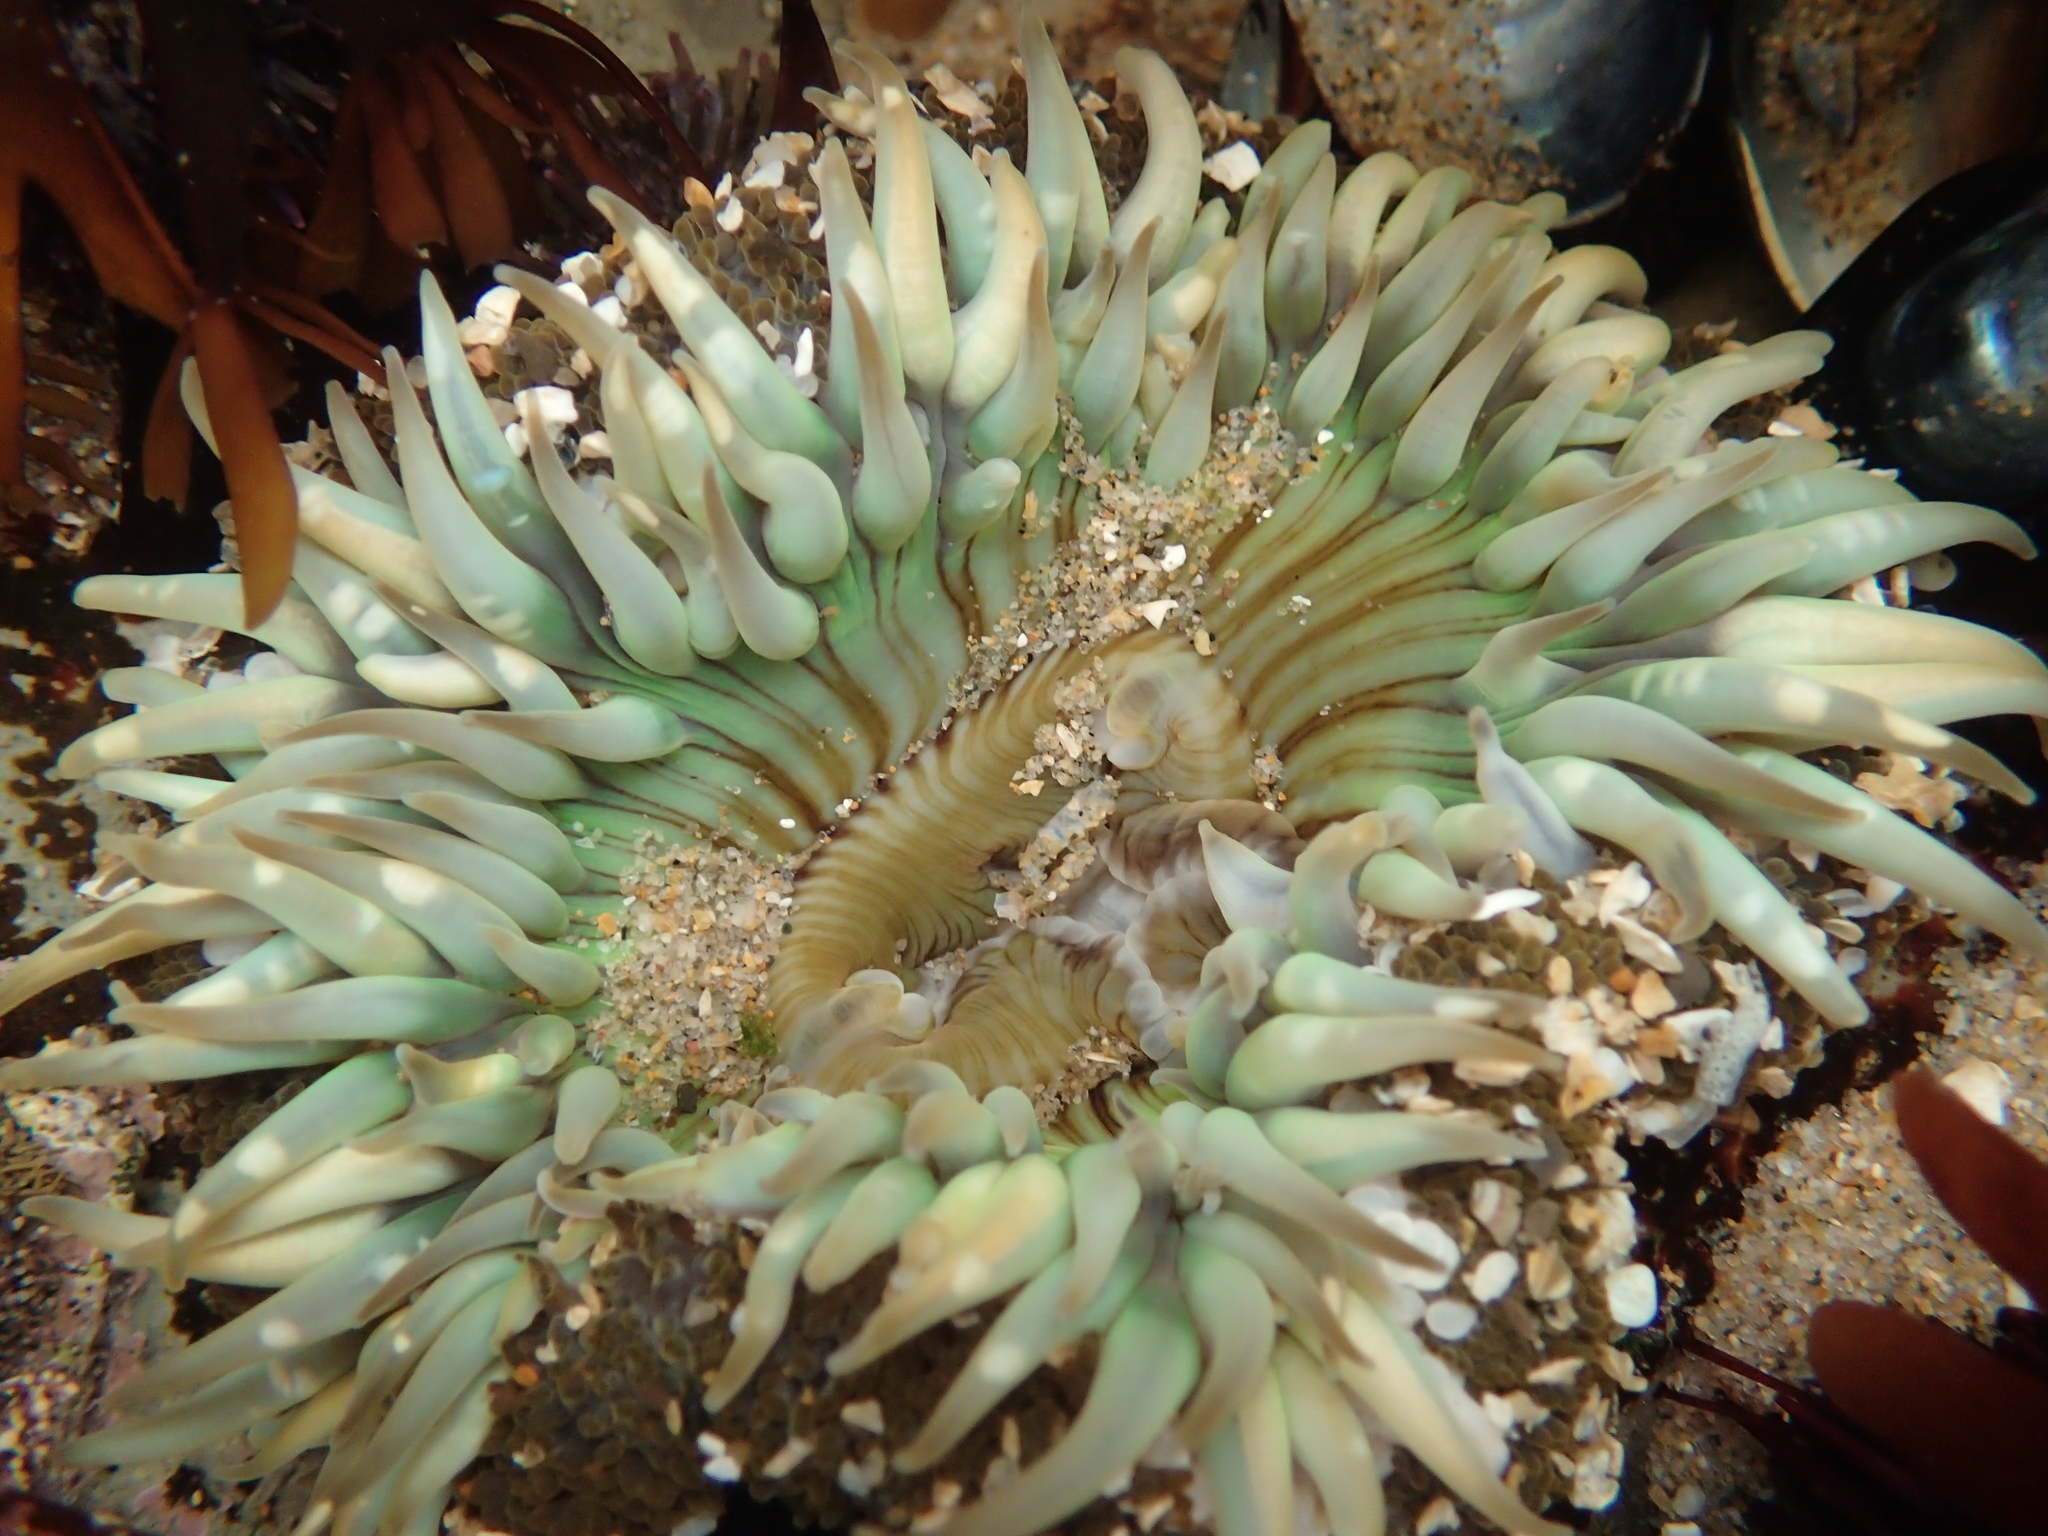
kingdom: Animalia
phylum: Cnidaria
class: Anthozoa
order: Actiniaria
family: Actiniidae
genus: Anthopleura
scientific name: Anthopleura sola
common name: Sun anemone
